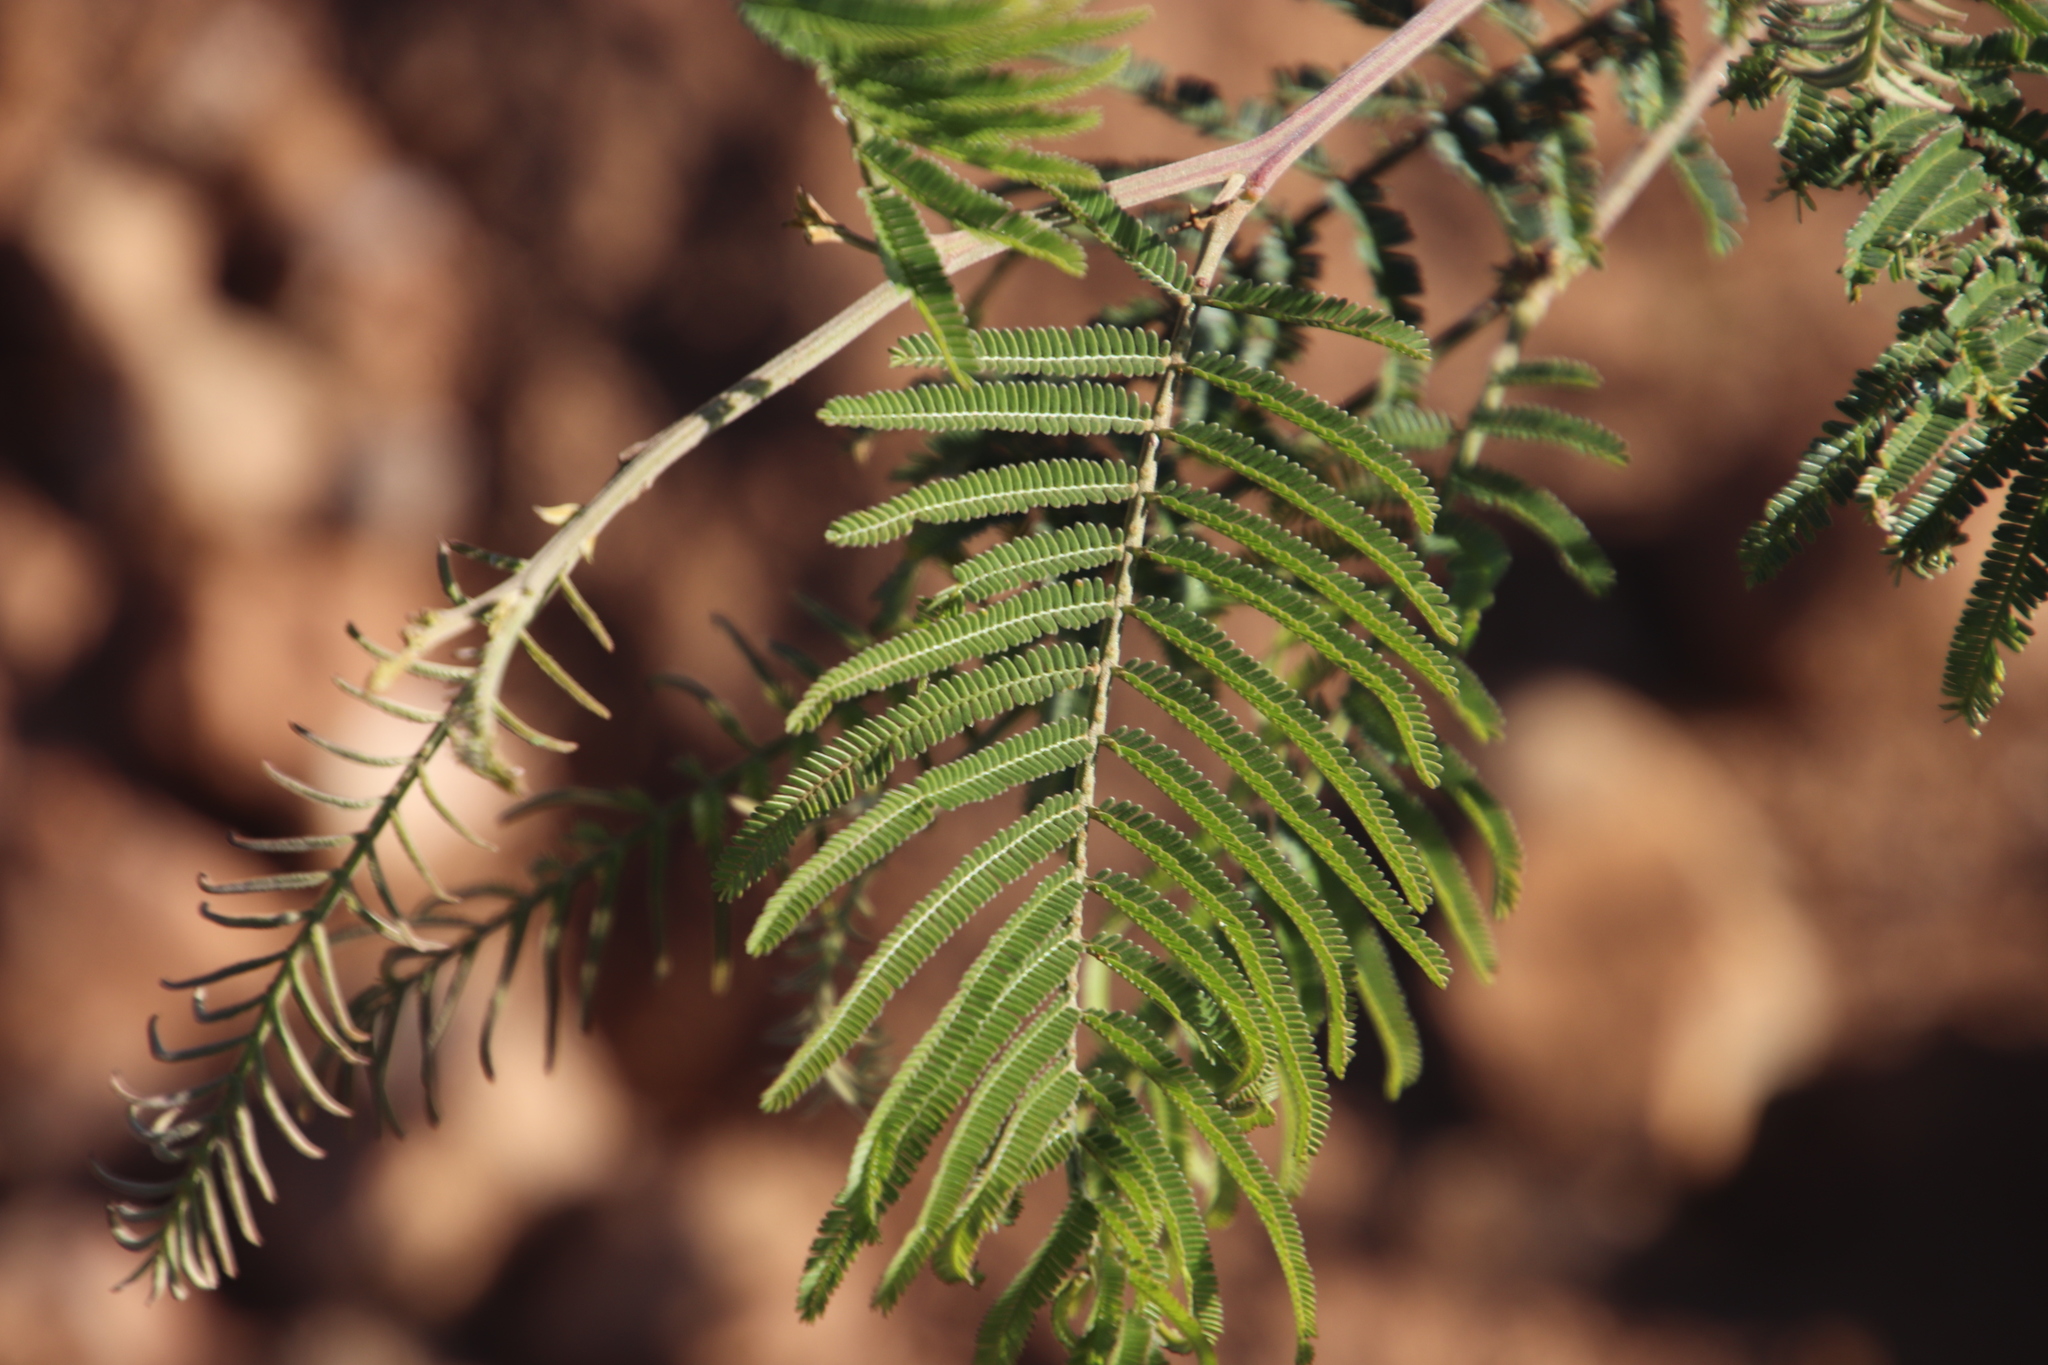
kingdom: Plantae
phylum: Tracheophyta
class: Magnoliopsida
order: Fabales
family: Fabaceae
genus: Acacia
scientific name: Acacia mearnsii
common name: Black wattle
